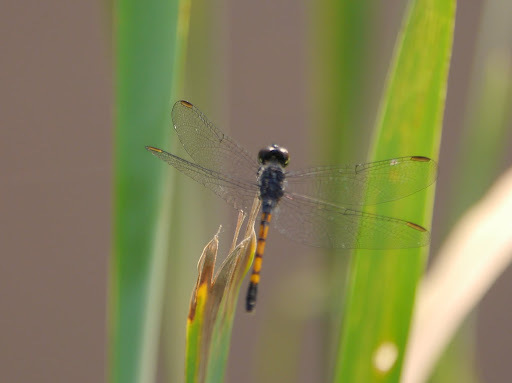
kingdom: Animalia
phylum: Arthropoda
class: Insecta
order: Odonata
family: Libellulidae
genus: Erythrodiplax
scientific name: Erythrodiplax berenice
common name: Seaside dragonlet
